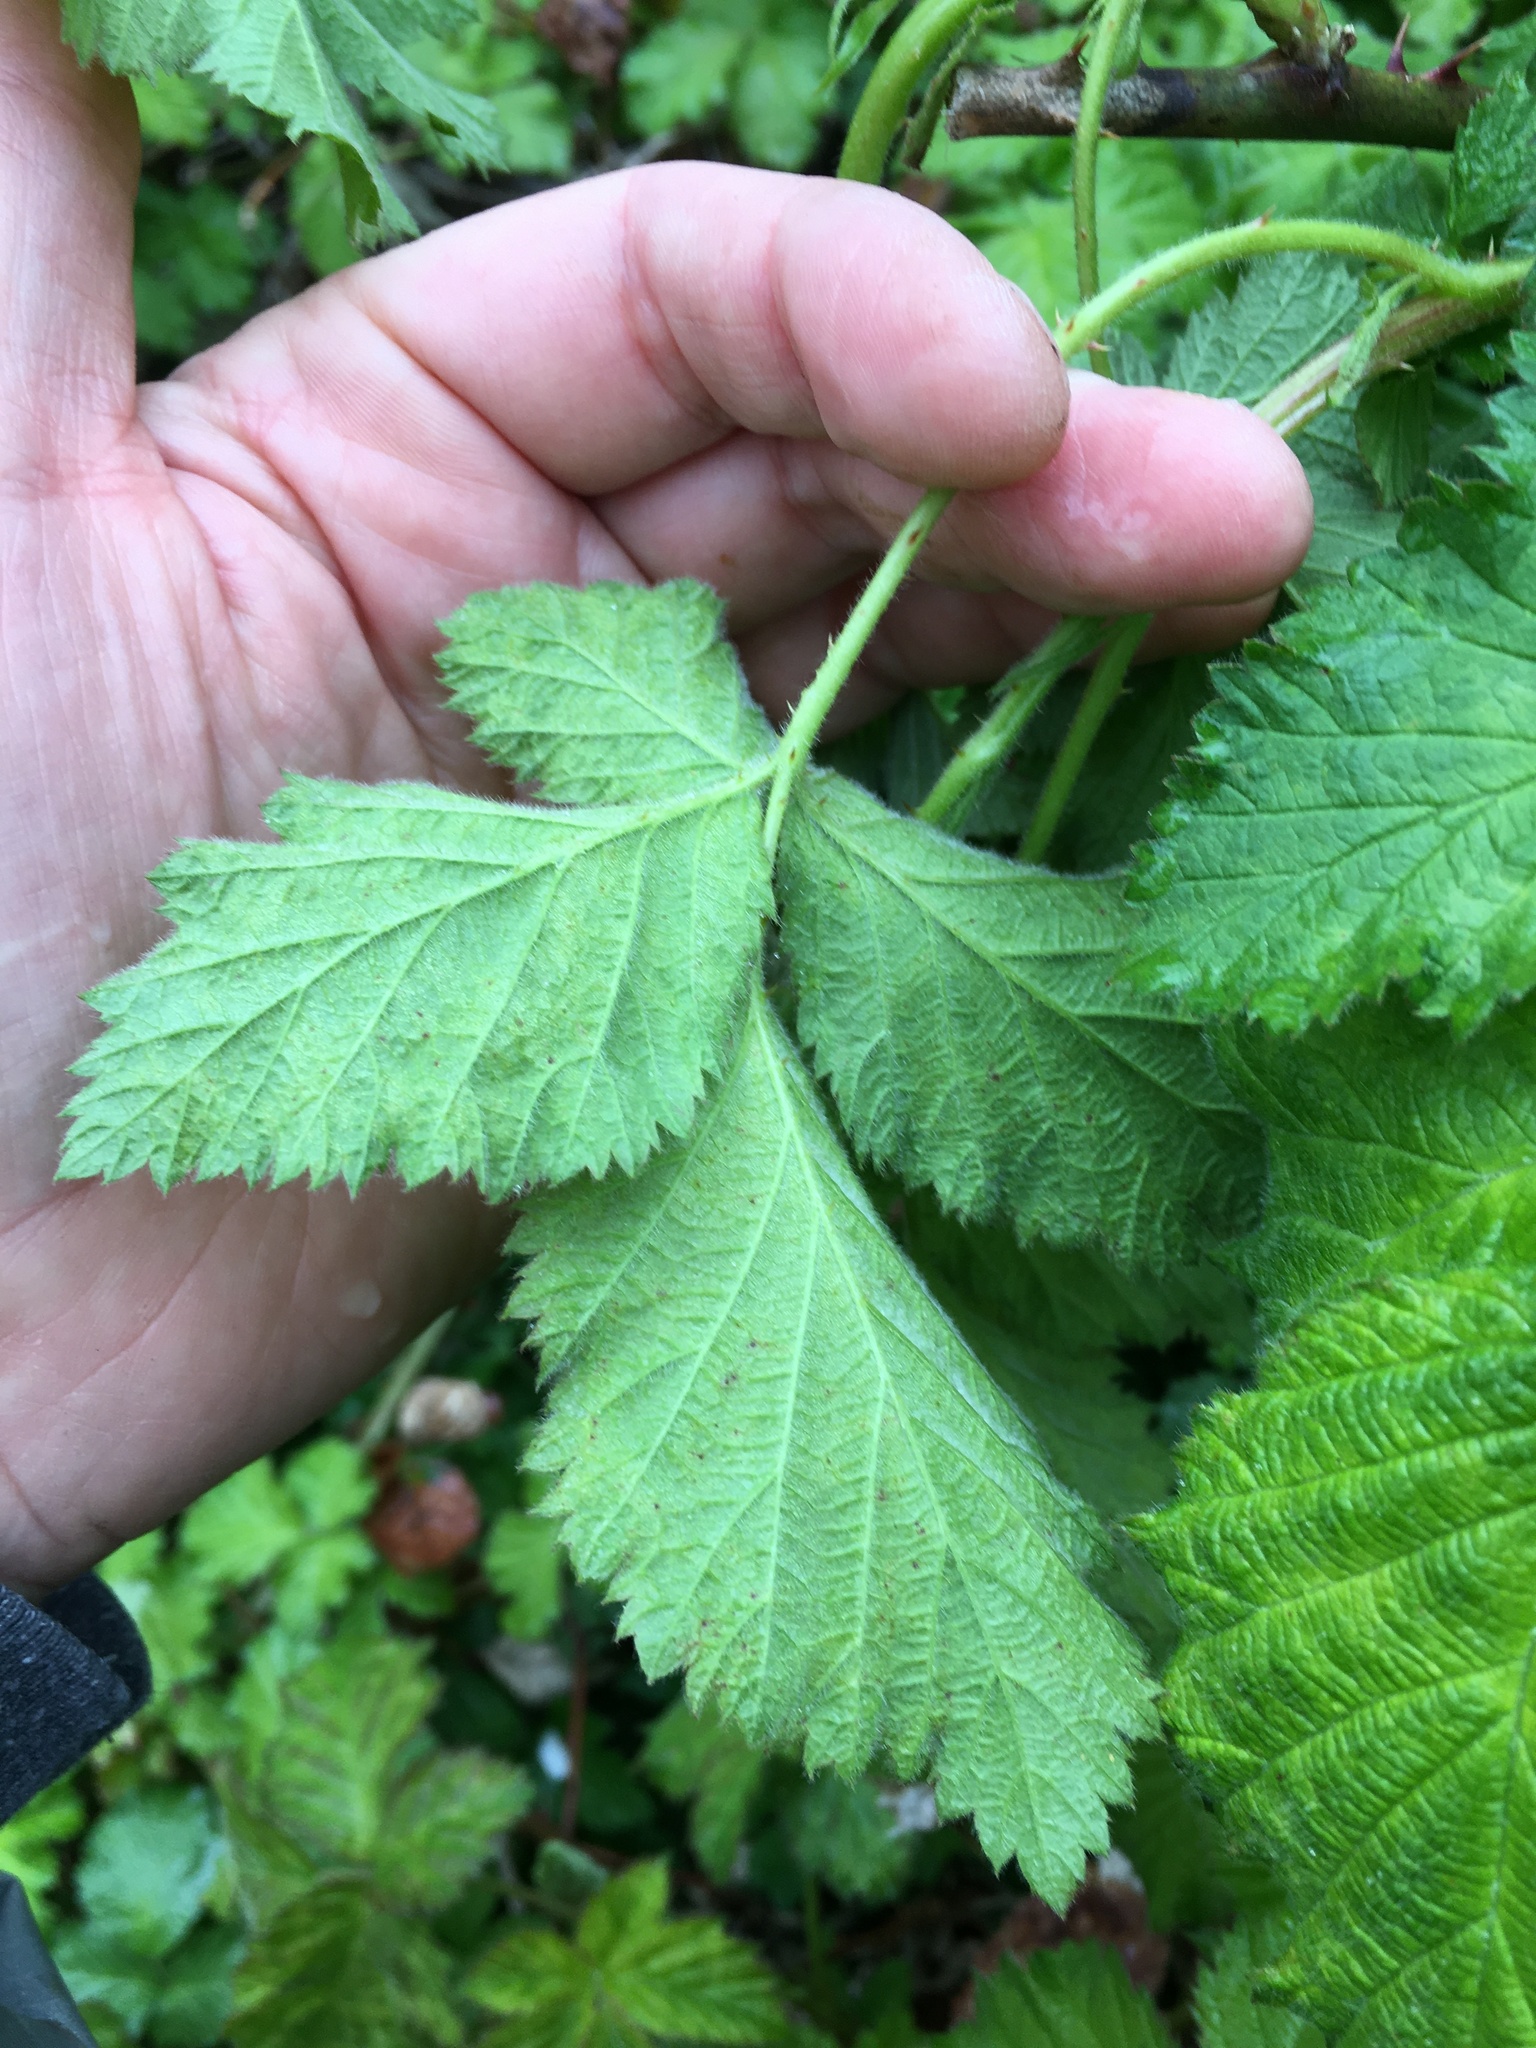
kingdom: Plantae
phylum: Tracheophyta
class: Magnoliopsida
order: Rosales
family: Rosaceae
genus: Rubus
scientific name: Rubus bifrons
